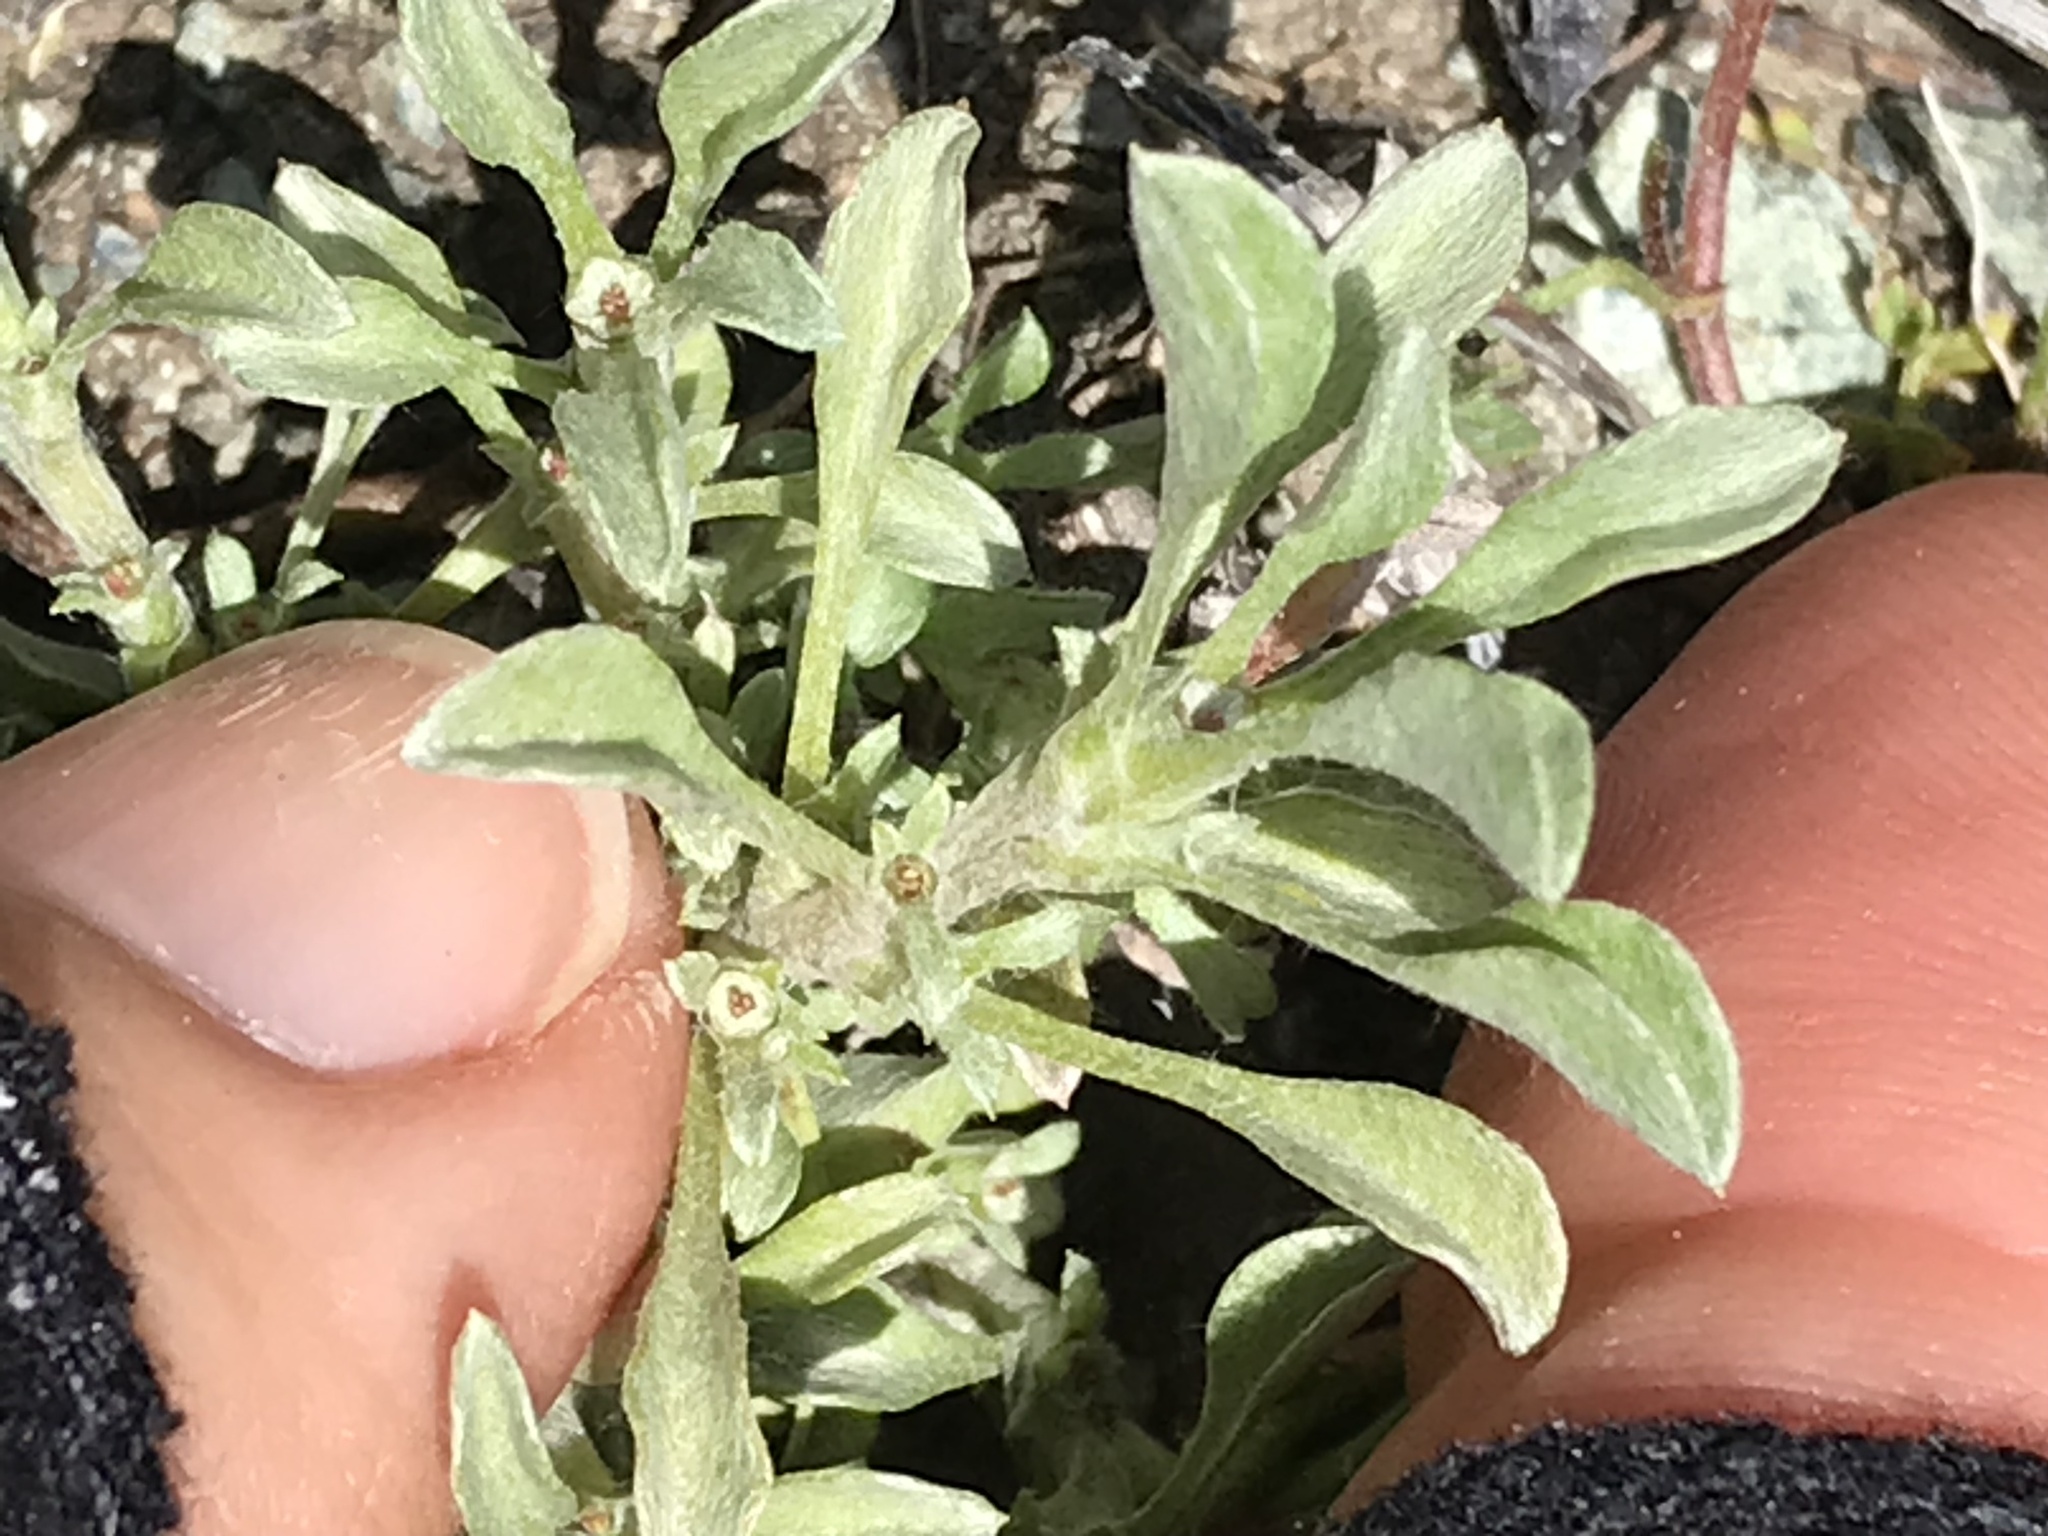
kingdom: Plantae
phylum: Tracheophyta
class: Magnoliopsida
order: Asterales
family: Asteraceae
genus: Hesperevax
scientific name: Hesperevax sparsiflora
